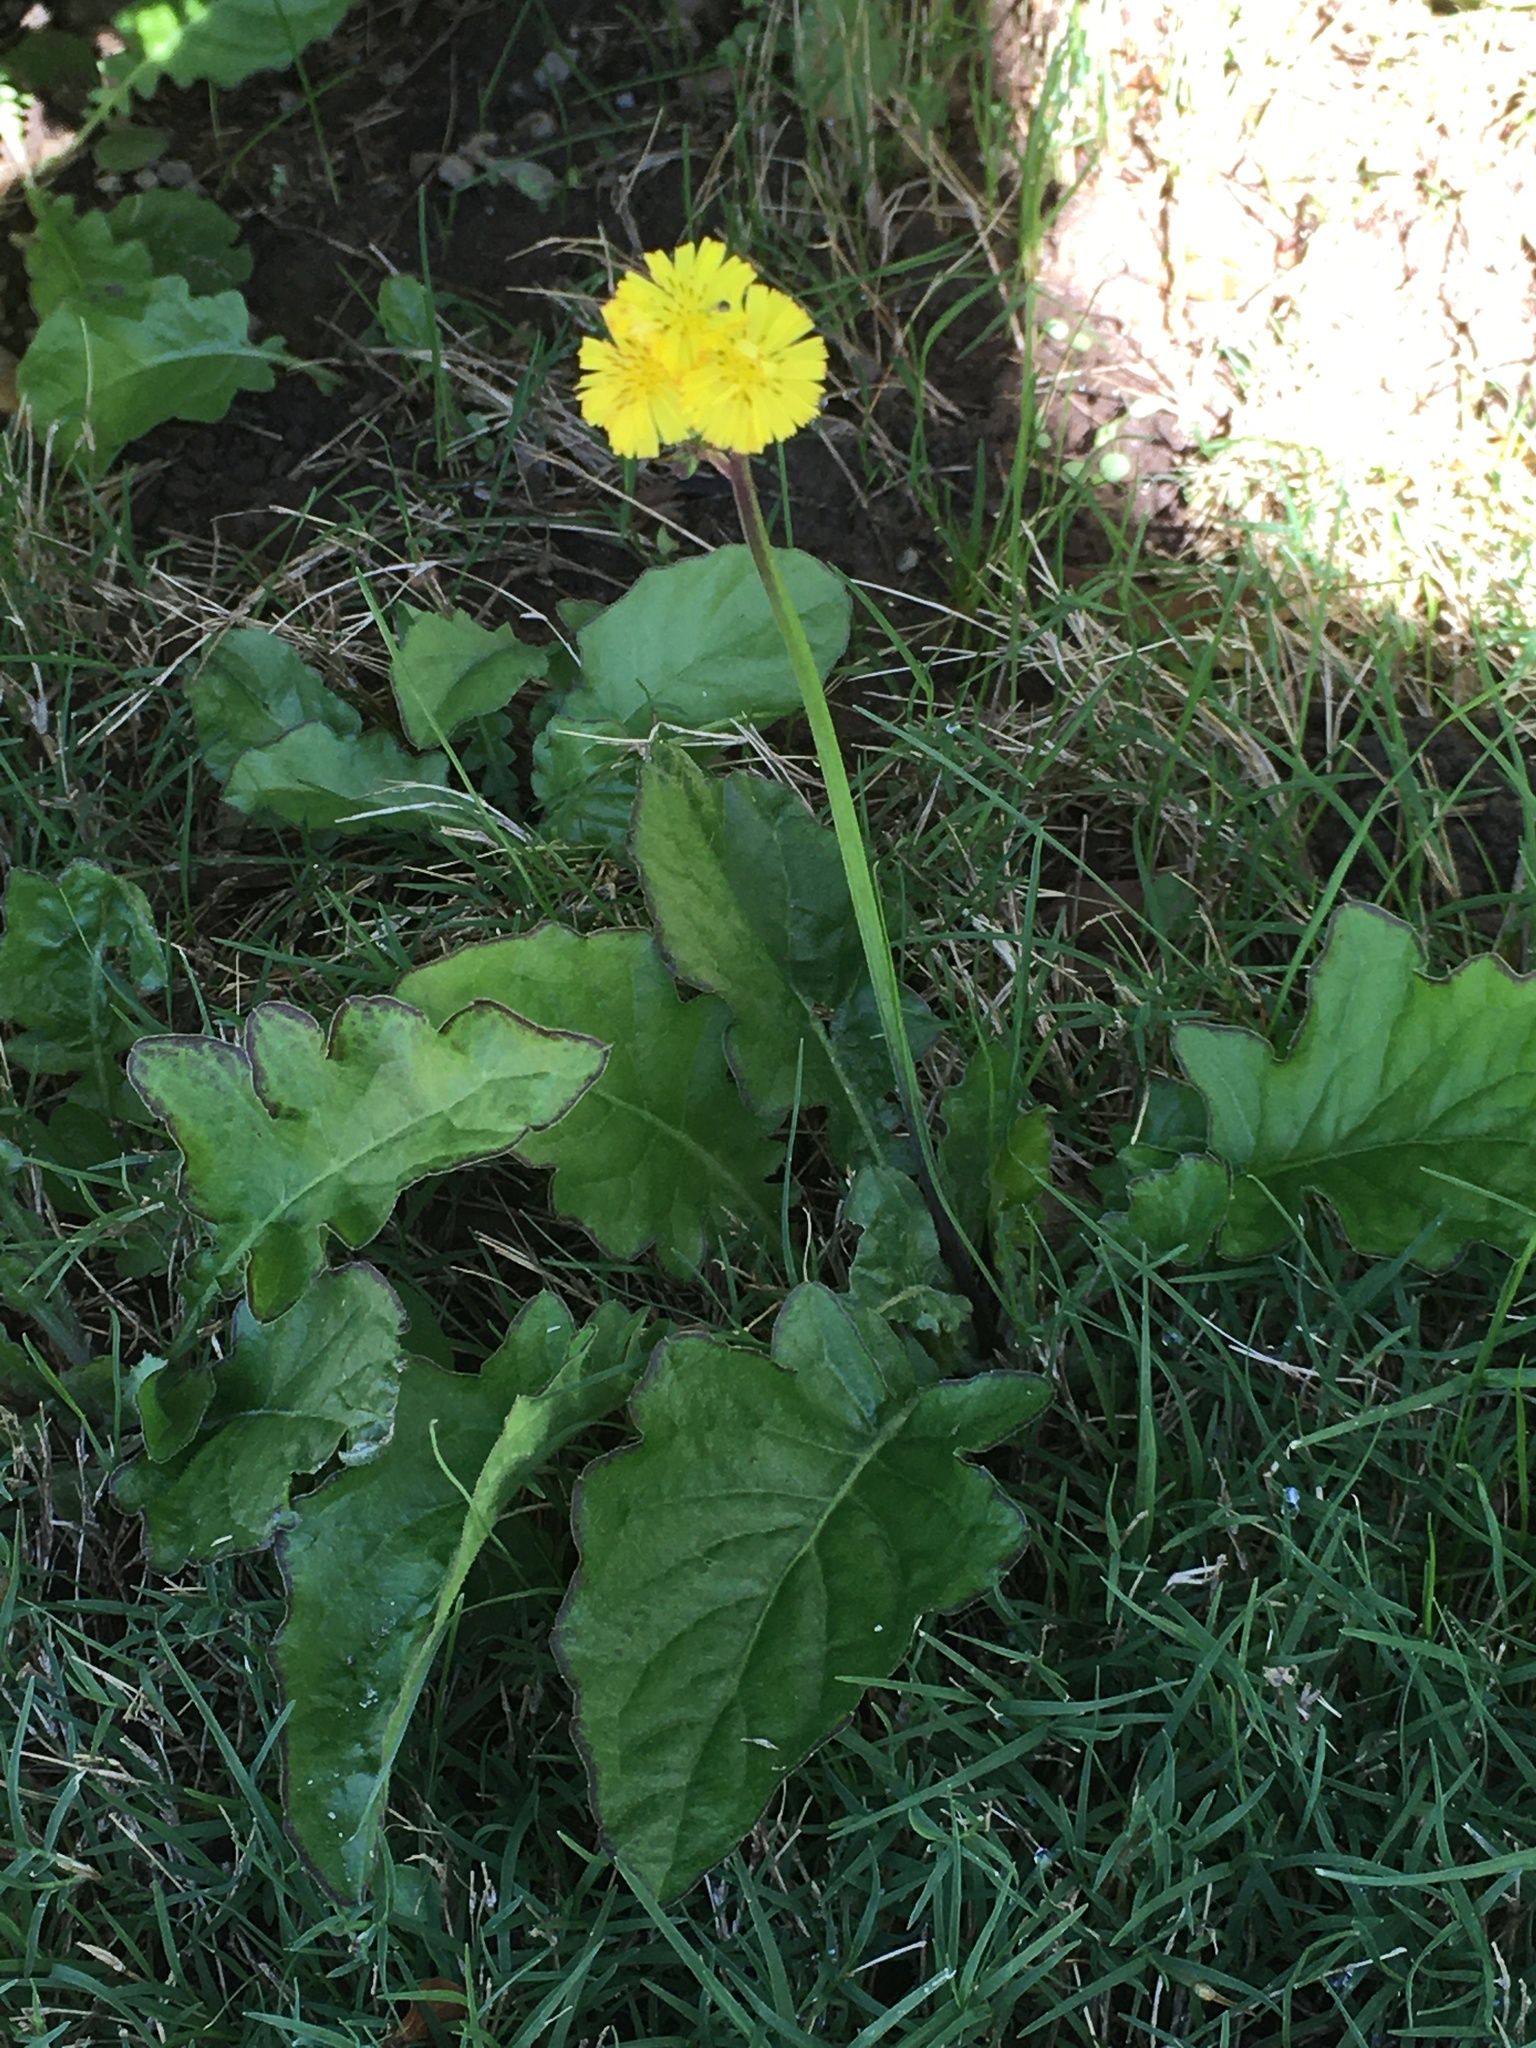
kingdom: Plantae
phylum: Tracheophyta
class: Magnoliopsida
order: Asterales
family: Asteraceae
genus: Youngia
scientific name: Youngia japonica
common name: Oriental false hawksbeard
